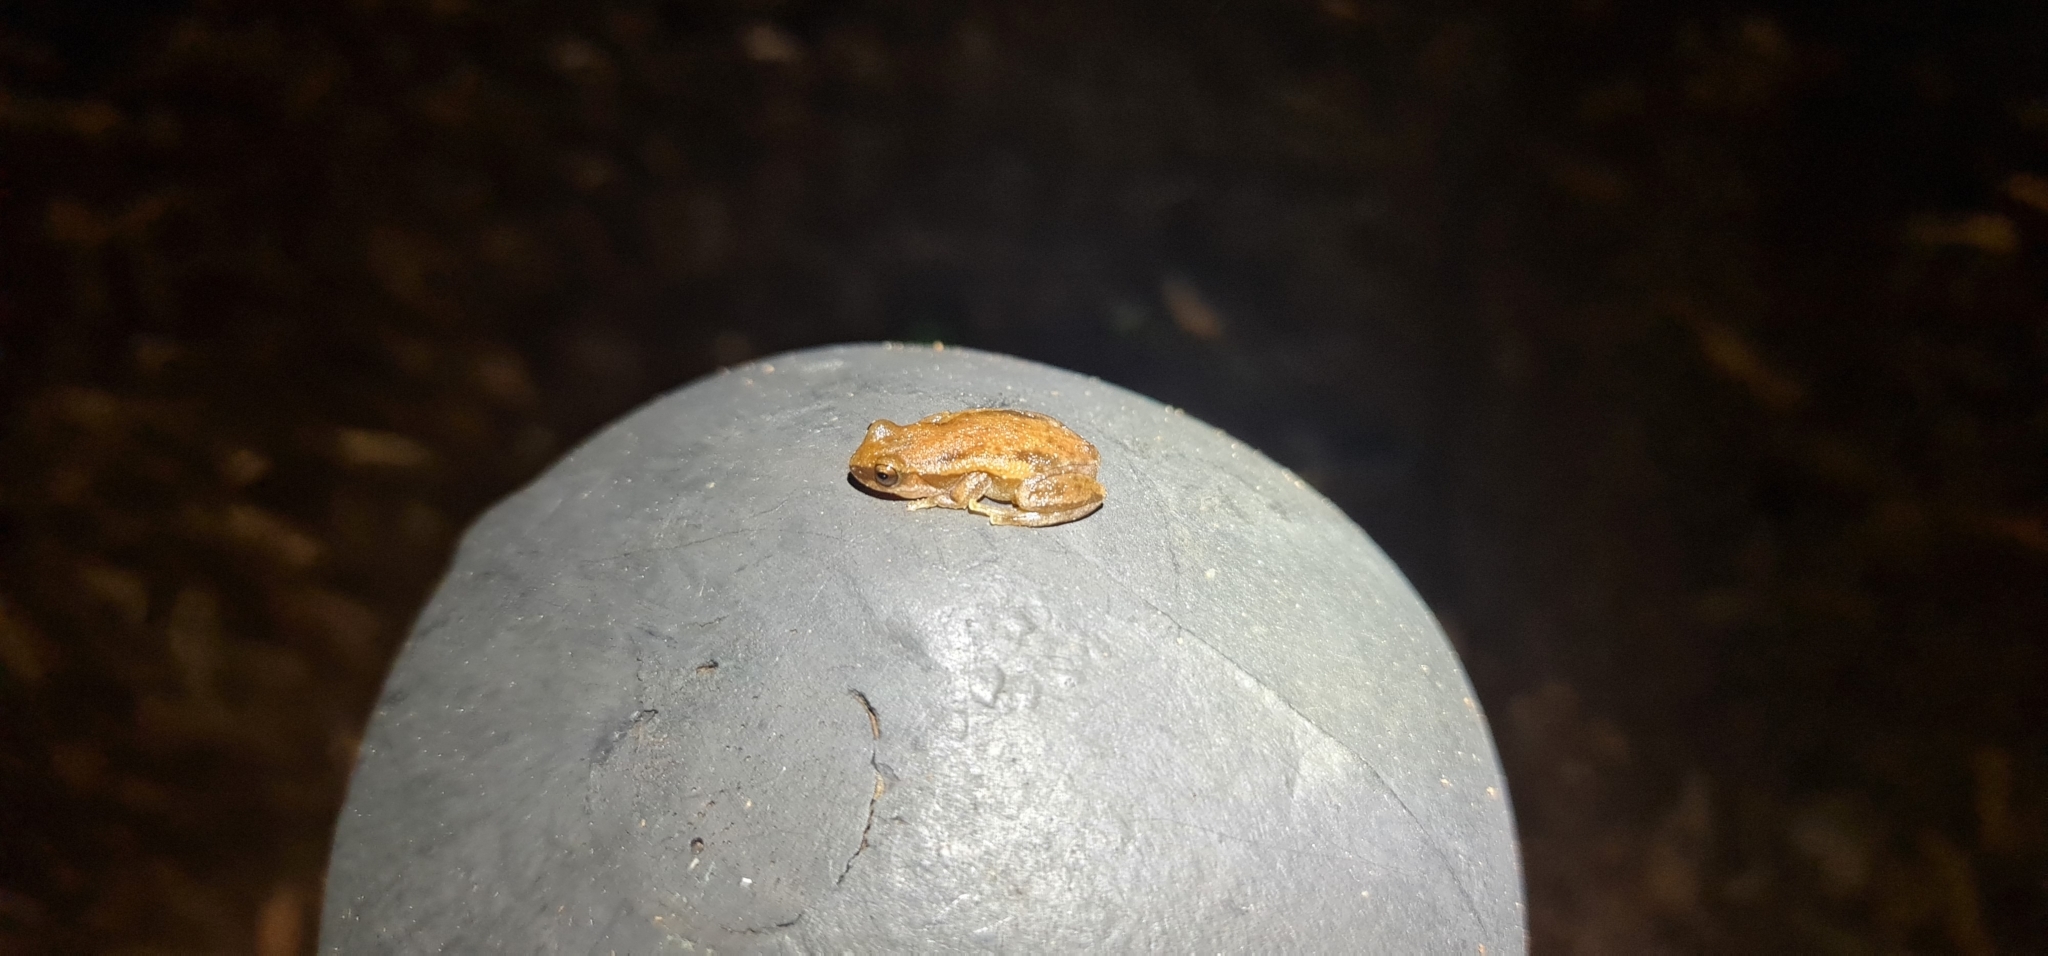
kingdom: Animalia
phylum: Chordata
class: Amphibia
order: Anura
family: Pelodryadidae
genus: Litoria
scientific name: Litoria rubella
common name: Desert tree frog
